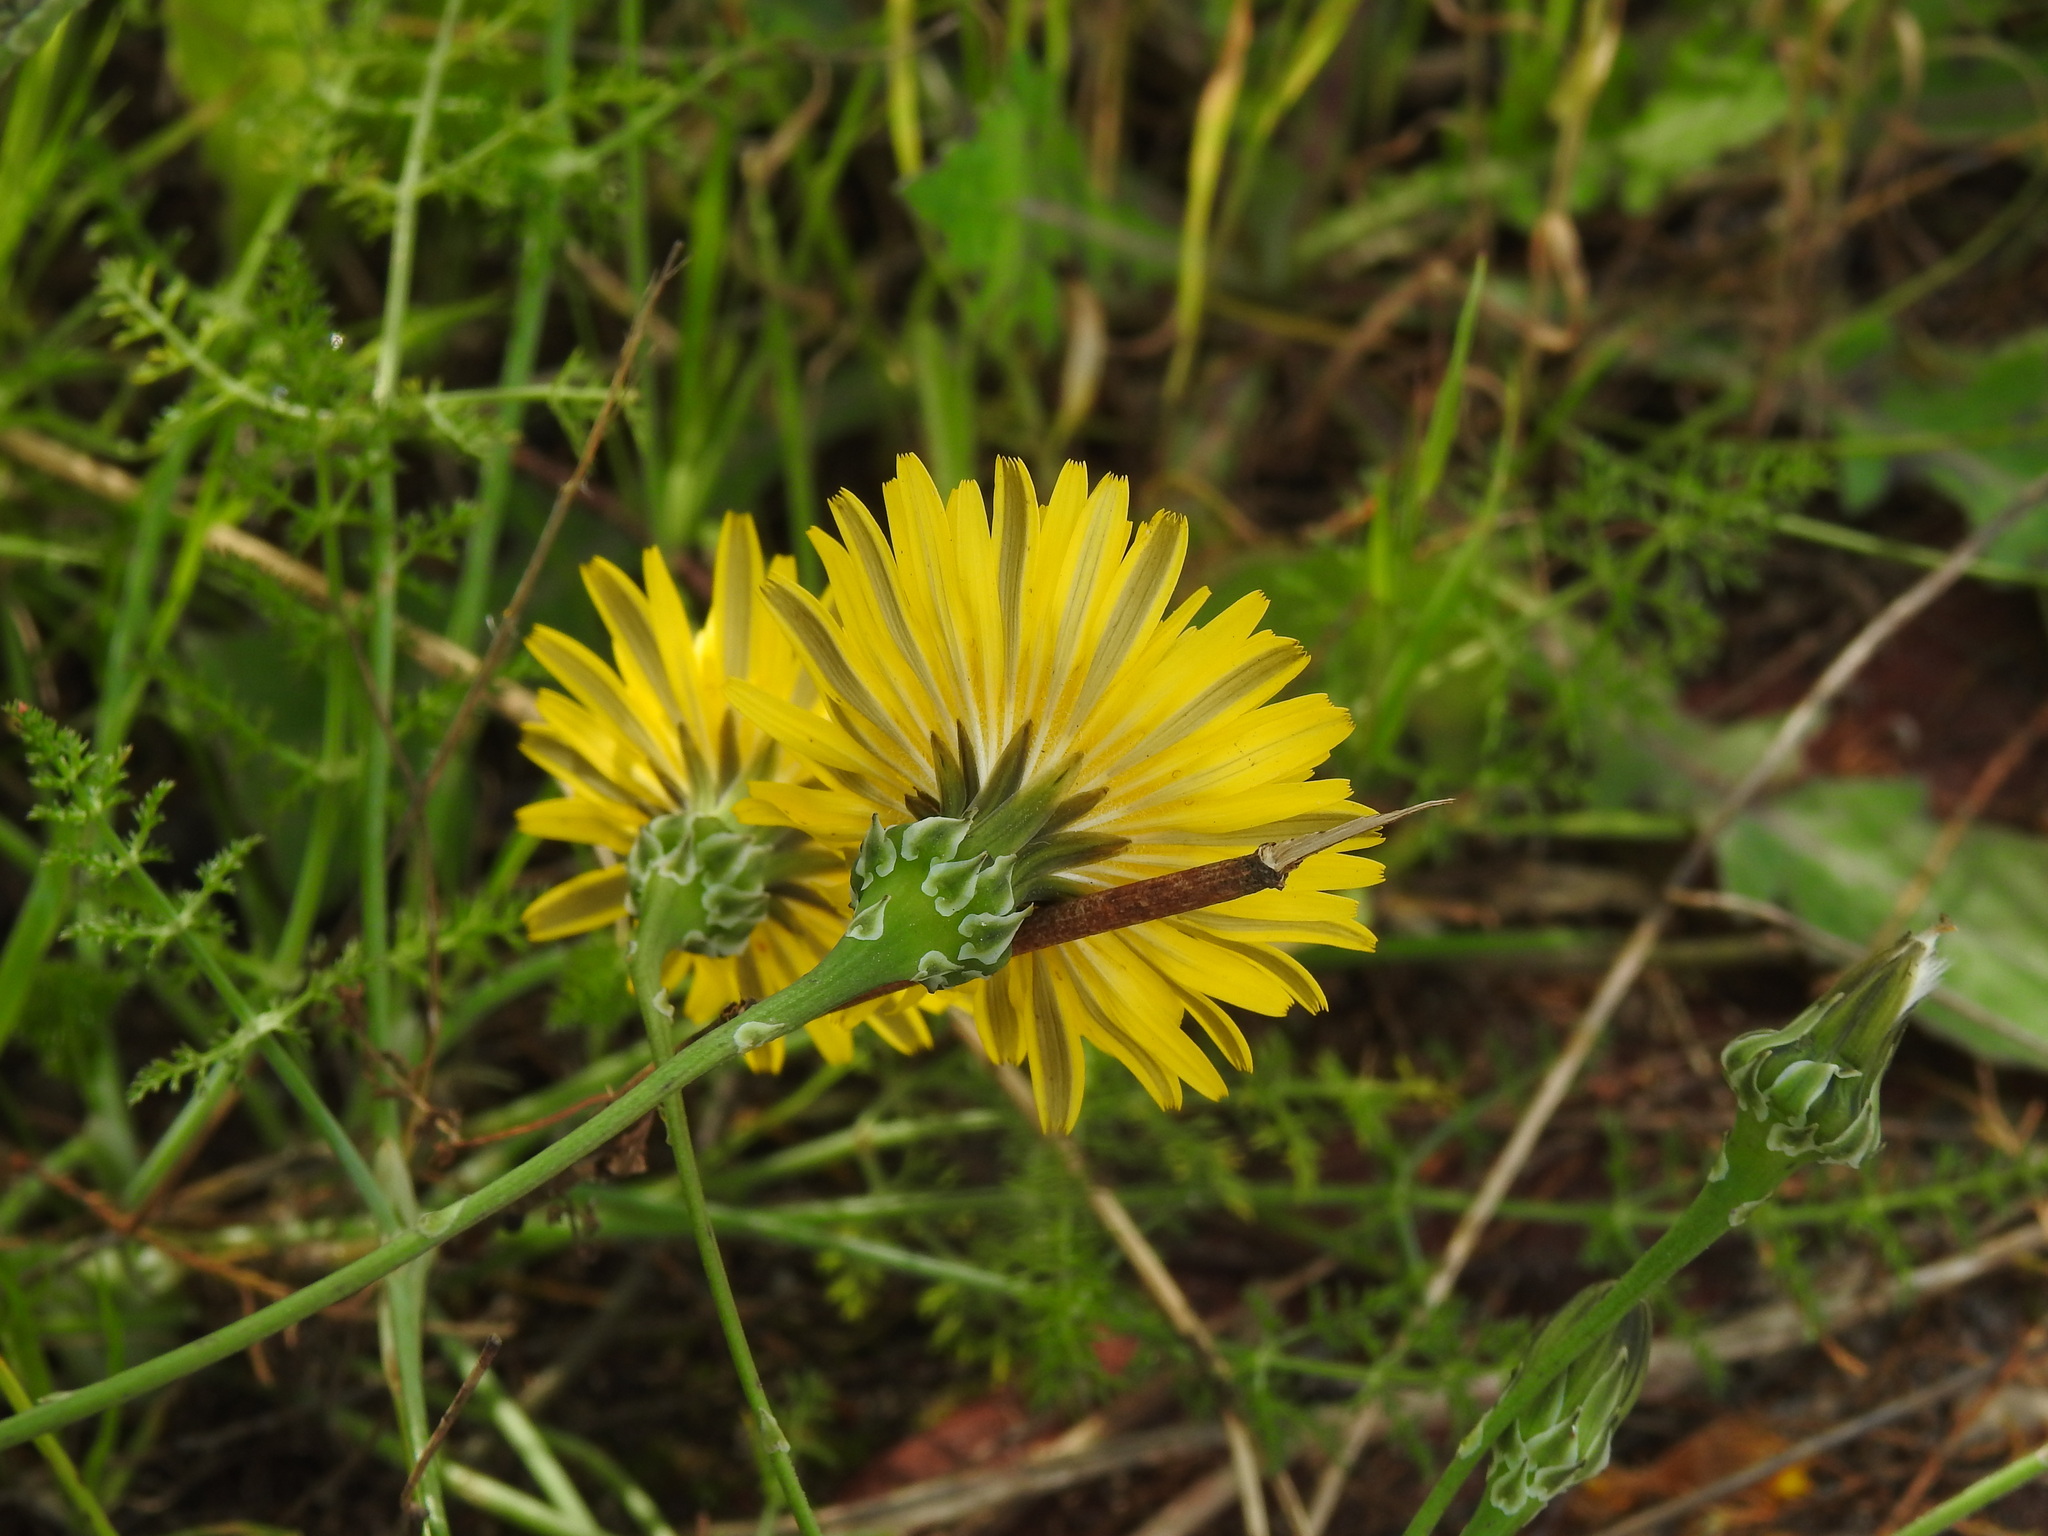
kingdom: Plantae
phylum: Tracheophyta
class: Magnoliopsida
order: Asterales
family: Asteraceae
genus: Reichardia
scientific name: Reichardia picroides
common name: Common brighteyes
